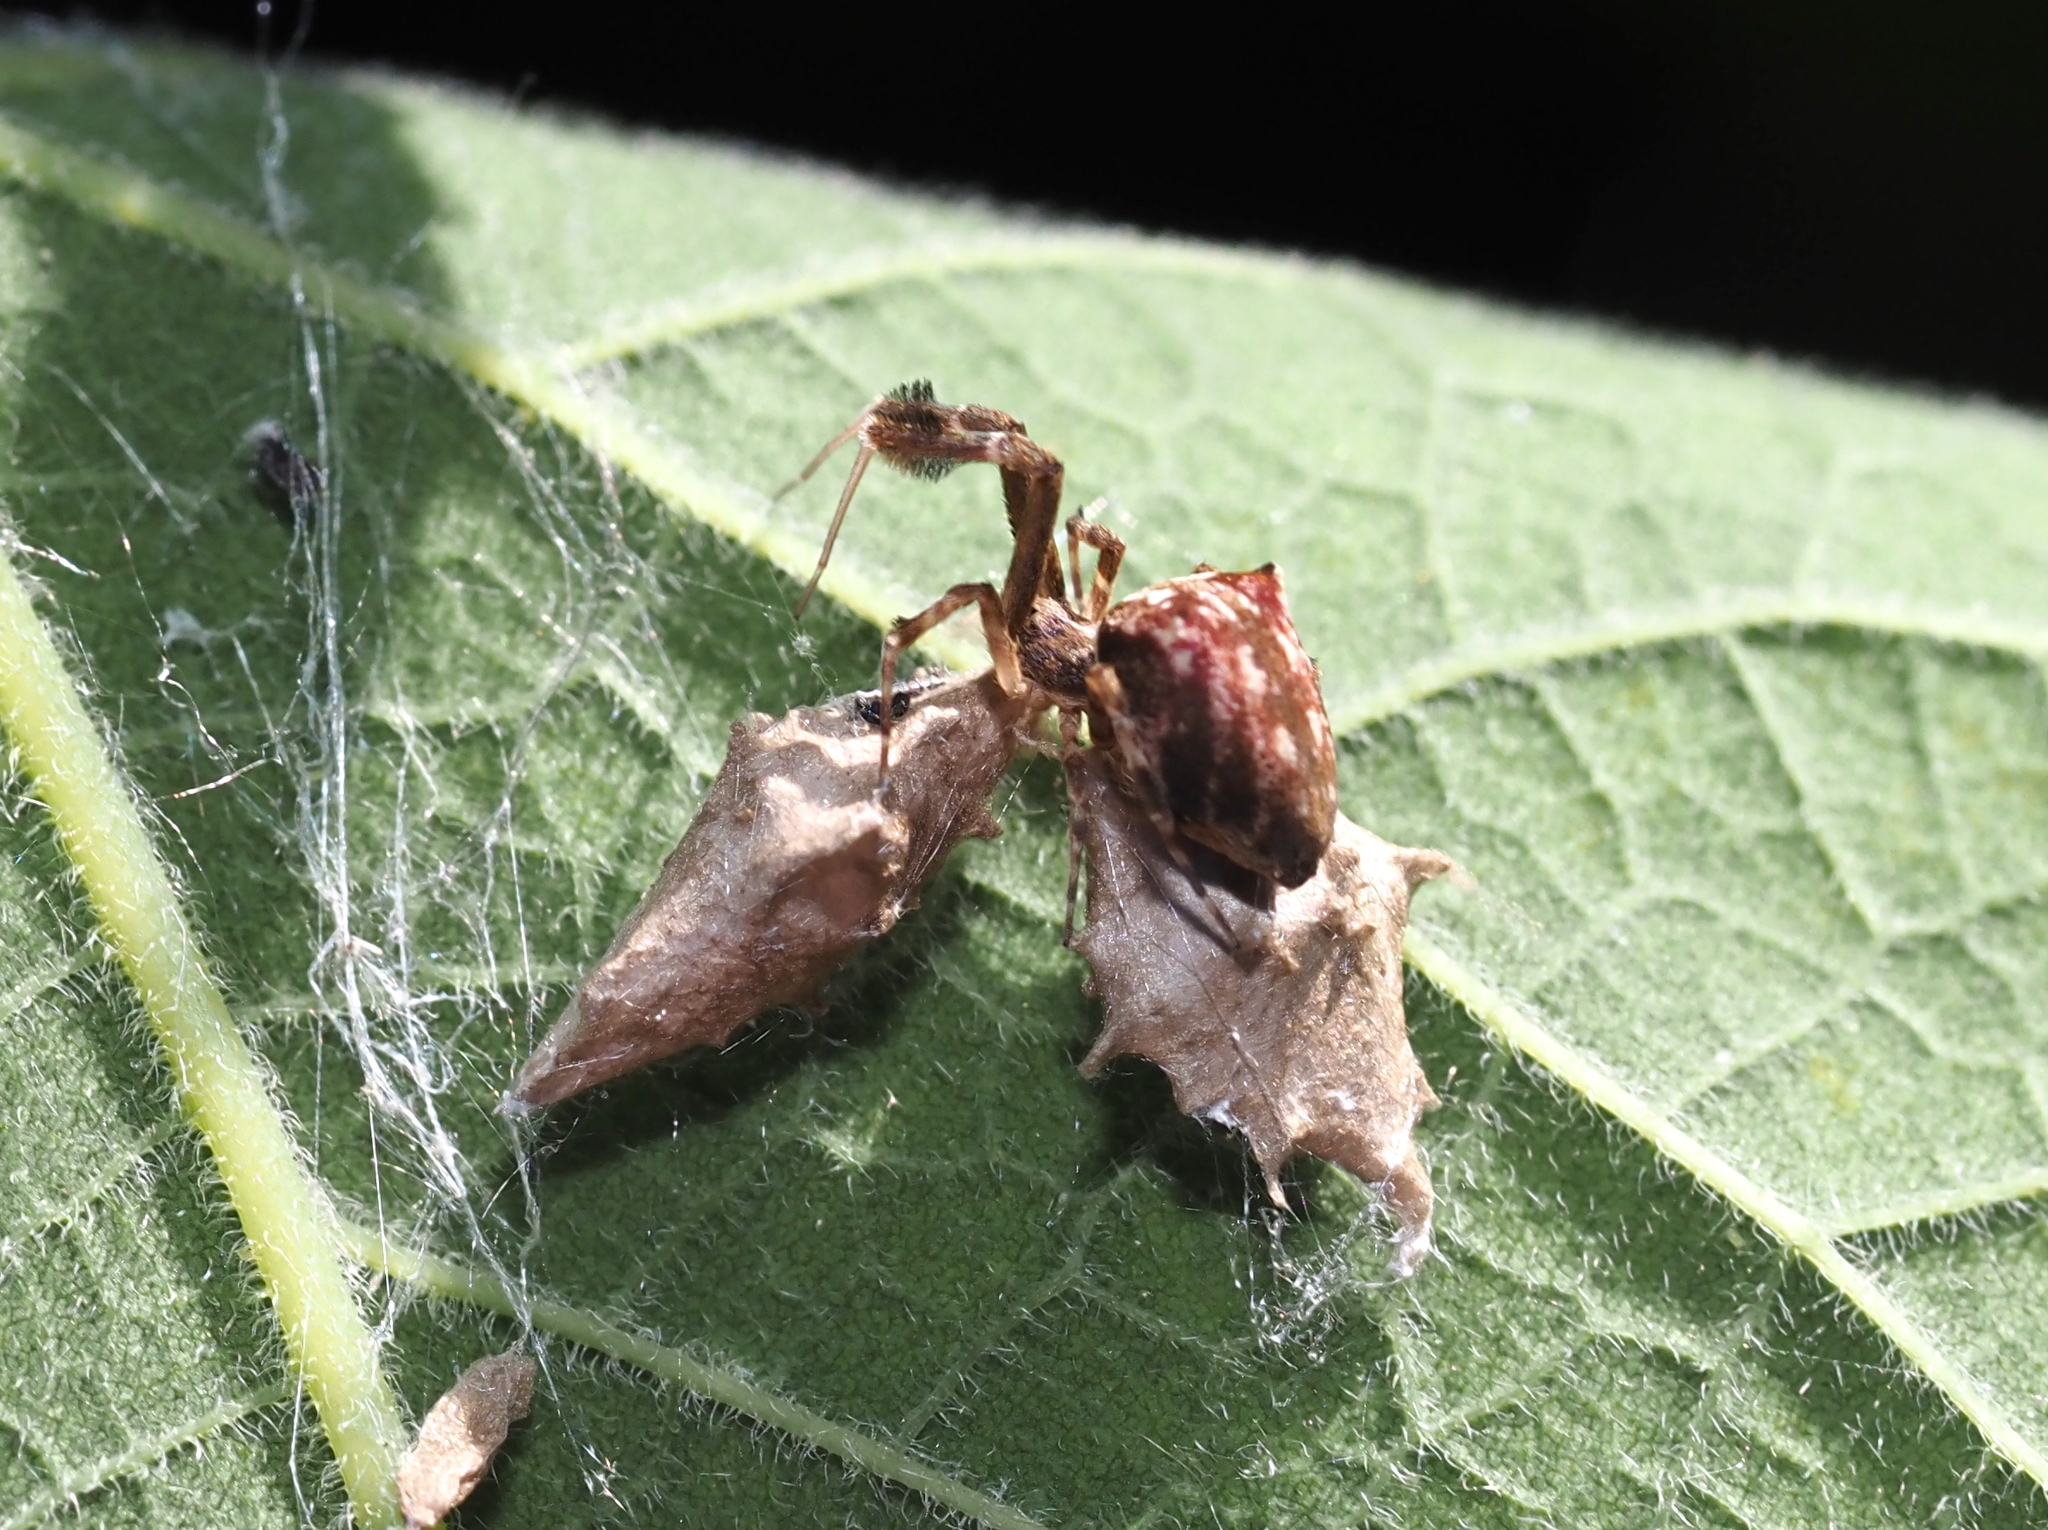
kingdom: Animalia
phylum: Arthropoda
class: Arachnida
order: Araneae
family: Uloboridae
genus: Uloborus
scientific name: Uloborus glomosus
